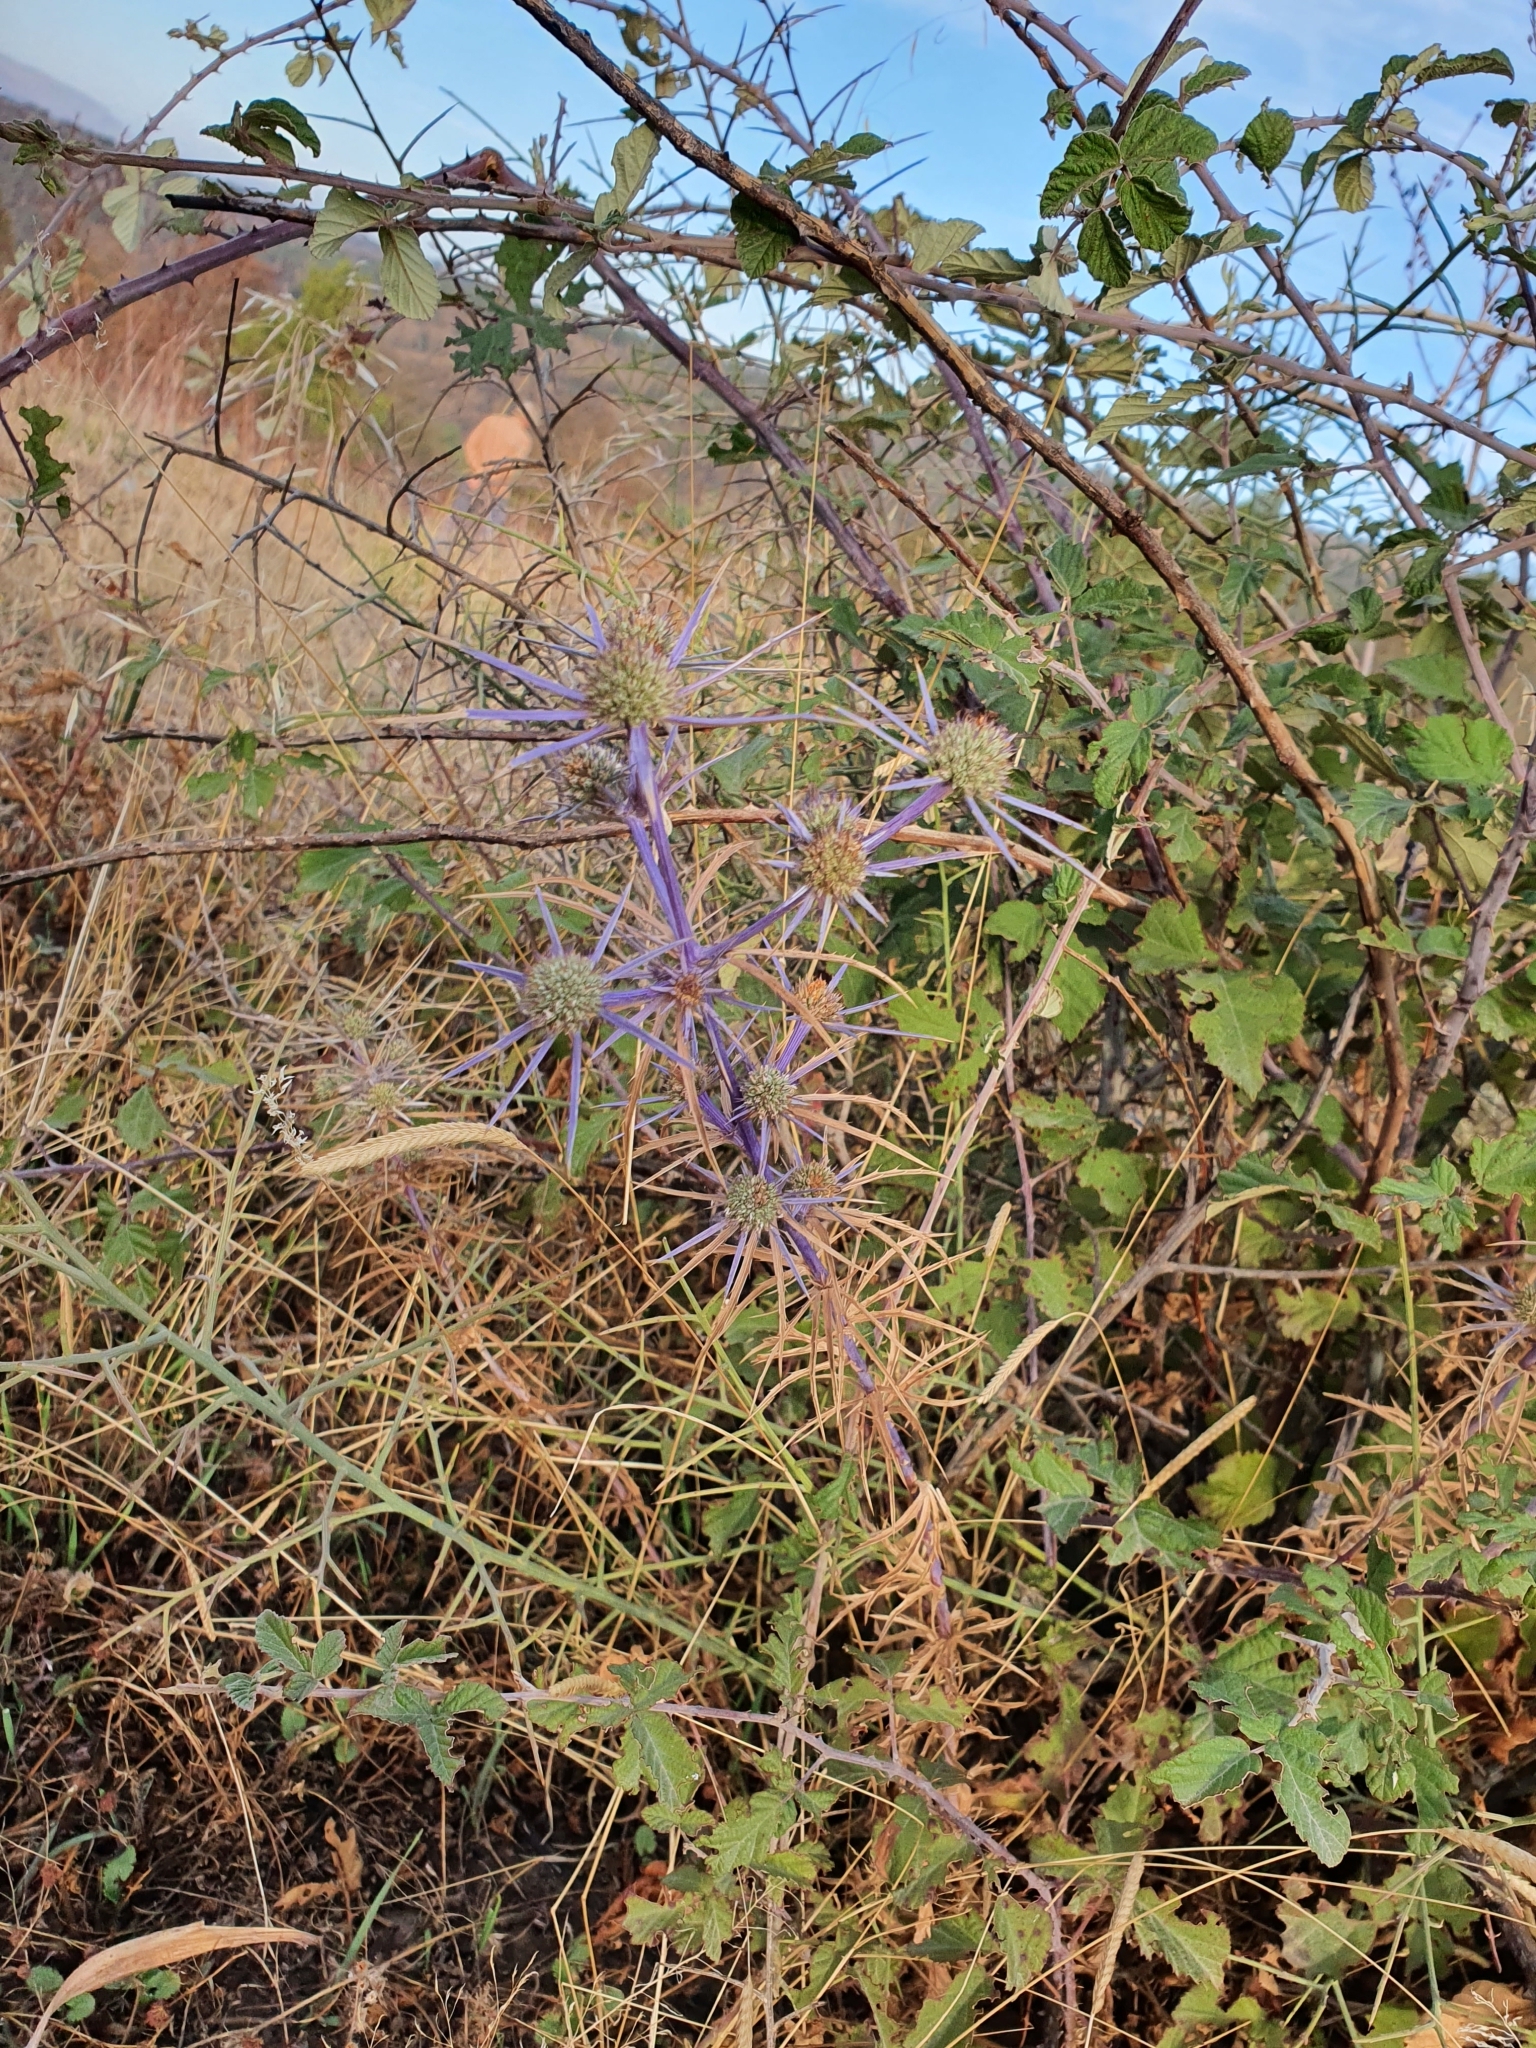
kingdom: Plantae
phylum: Tracheophyta
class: Magnoliopsida
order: Apiales
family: Apiaceae
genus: Eryngium
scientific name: Eryngium tricuspidatum
